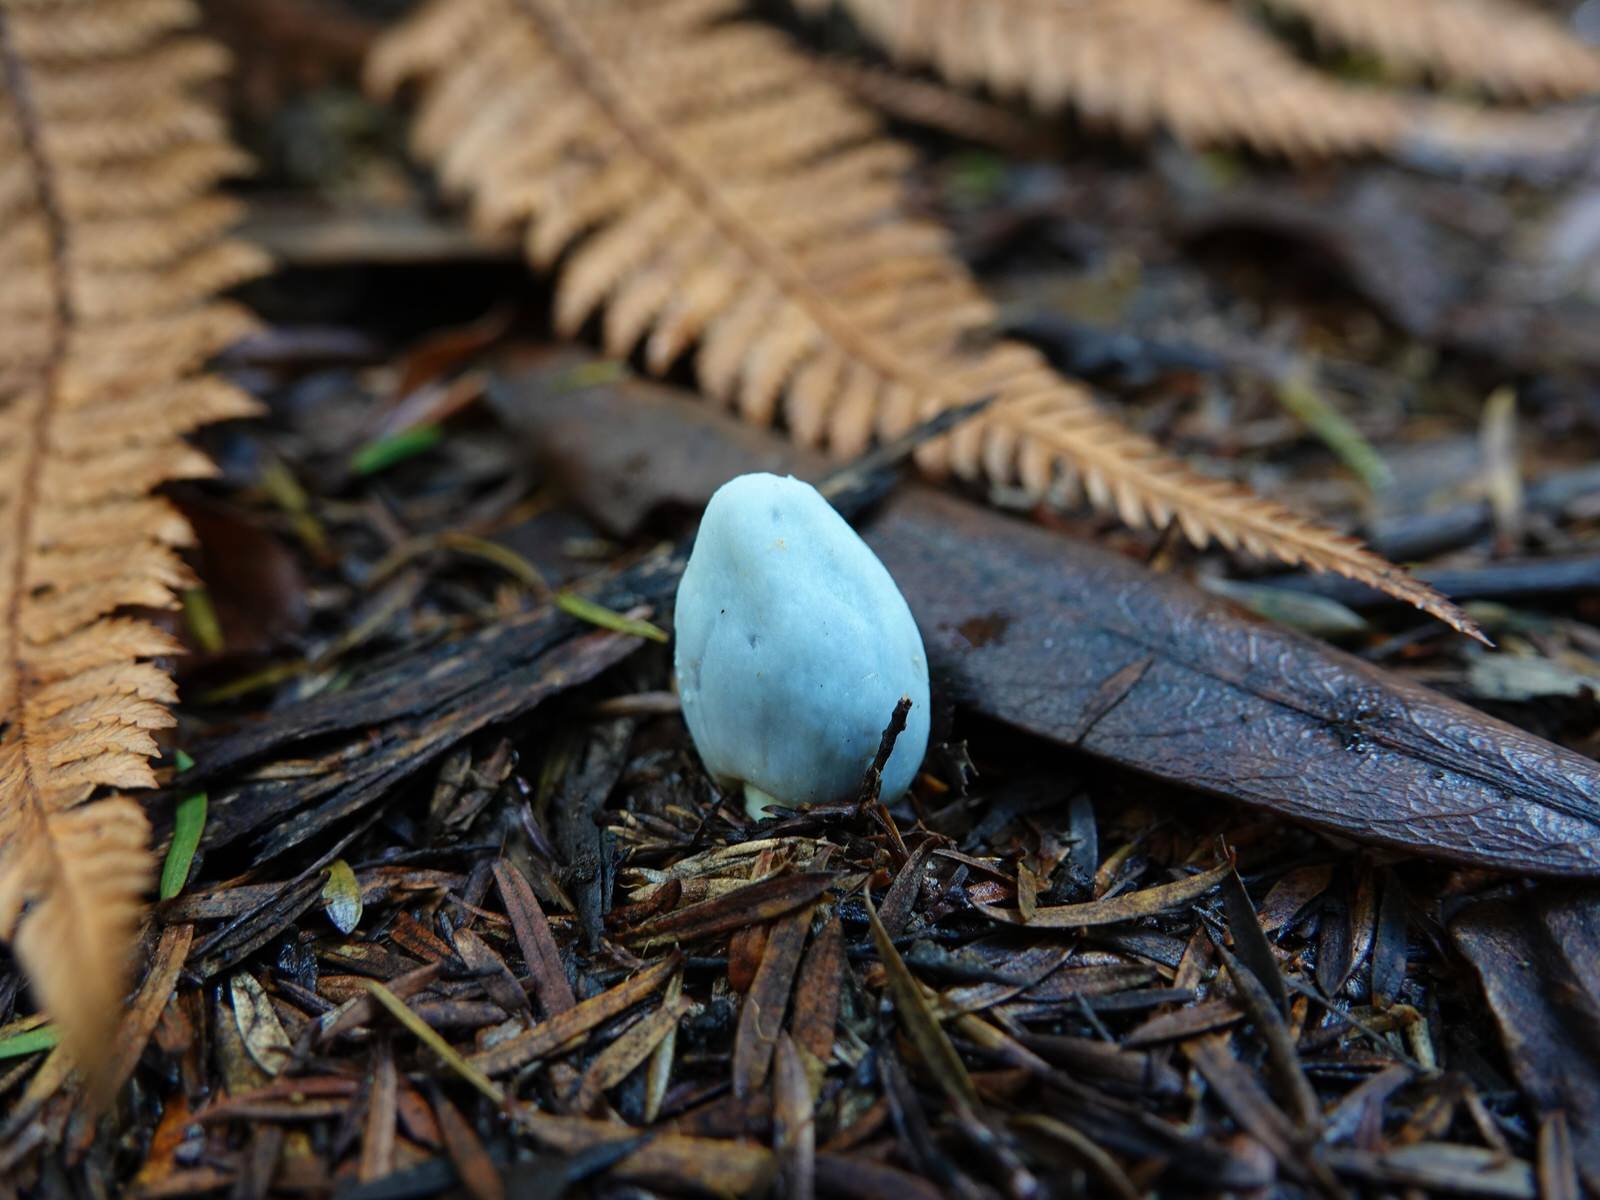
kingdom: Fungi
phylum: Basidiomycota
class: Agaricomycetes
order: Agaricales
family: Agaricaceae
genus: Clavogaster
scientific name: Clavogaster virescens
